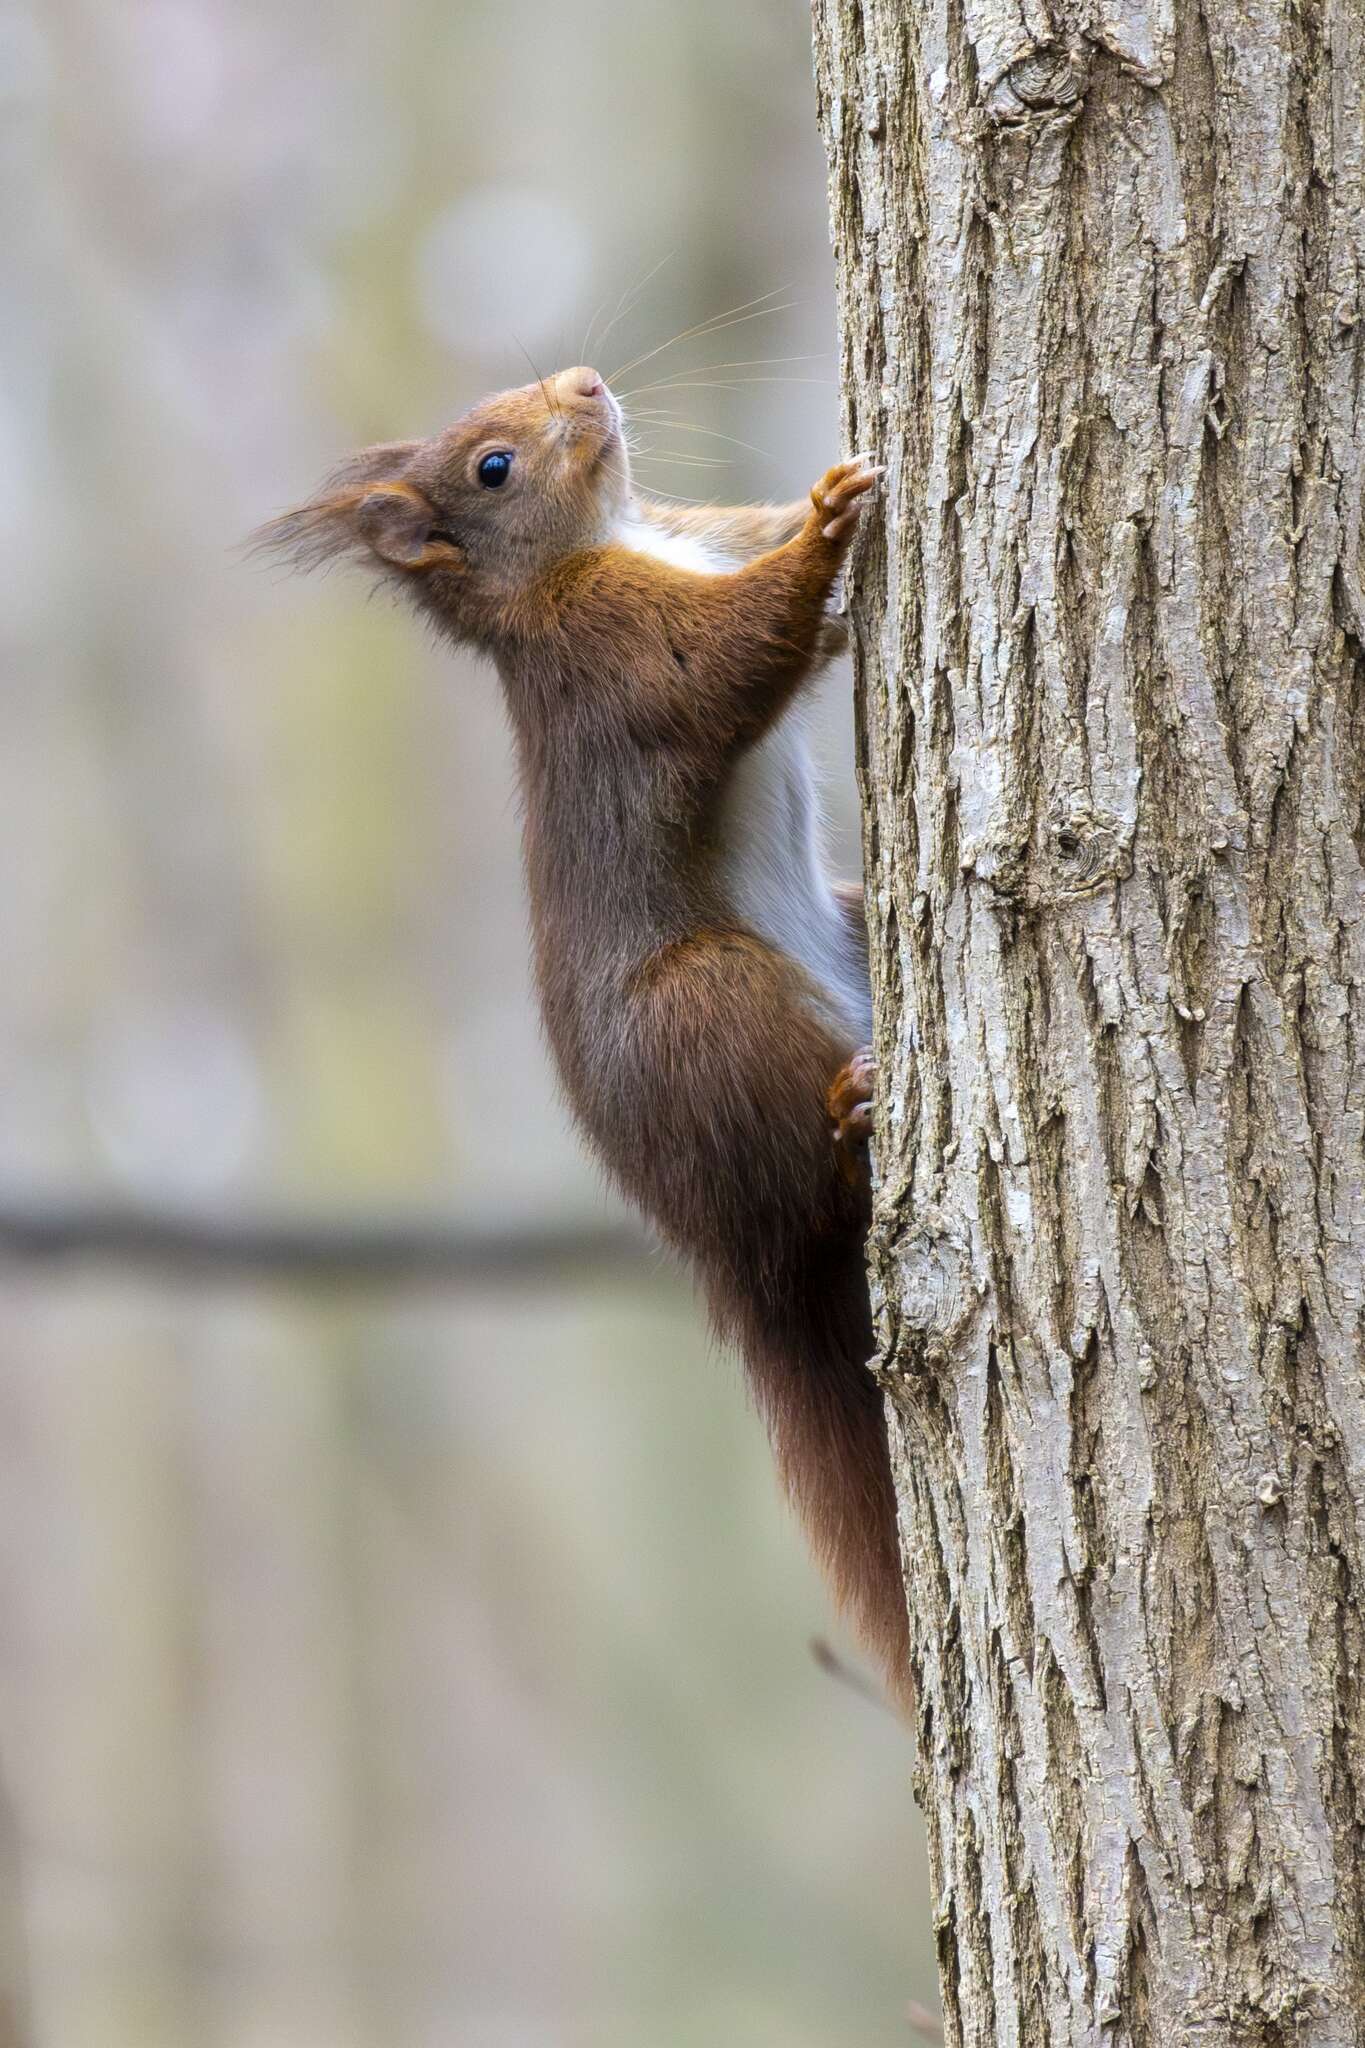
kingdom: Animalia
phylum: Chordata
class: Mammalia
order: Rodentia
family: Sciuridae
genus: Sciurus
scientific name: Sciurus vulgaris
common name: Eurasian red squirrel
